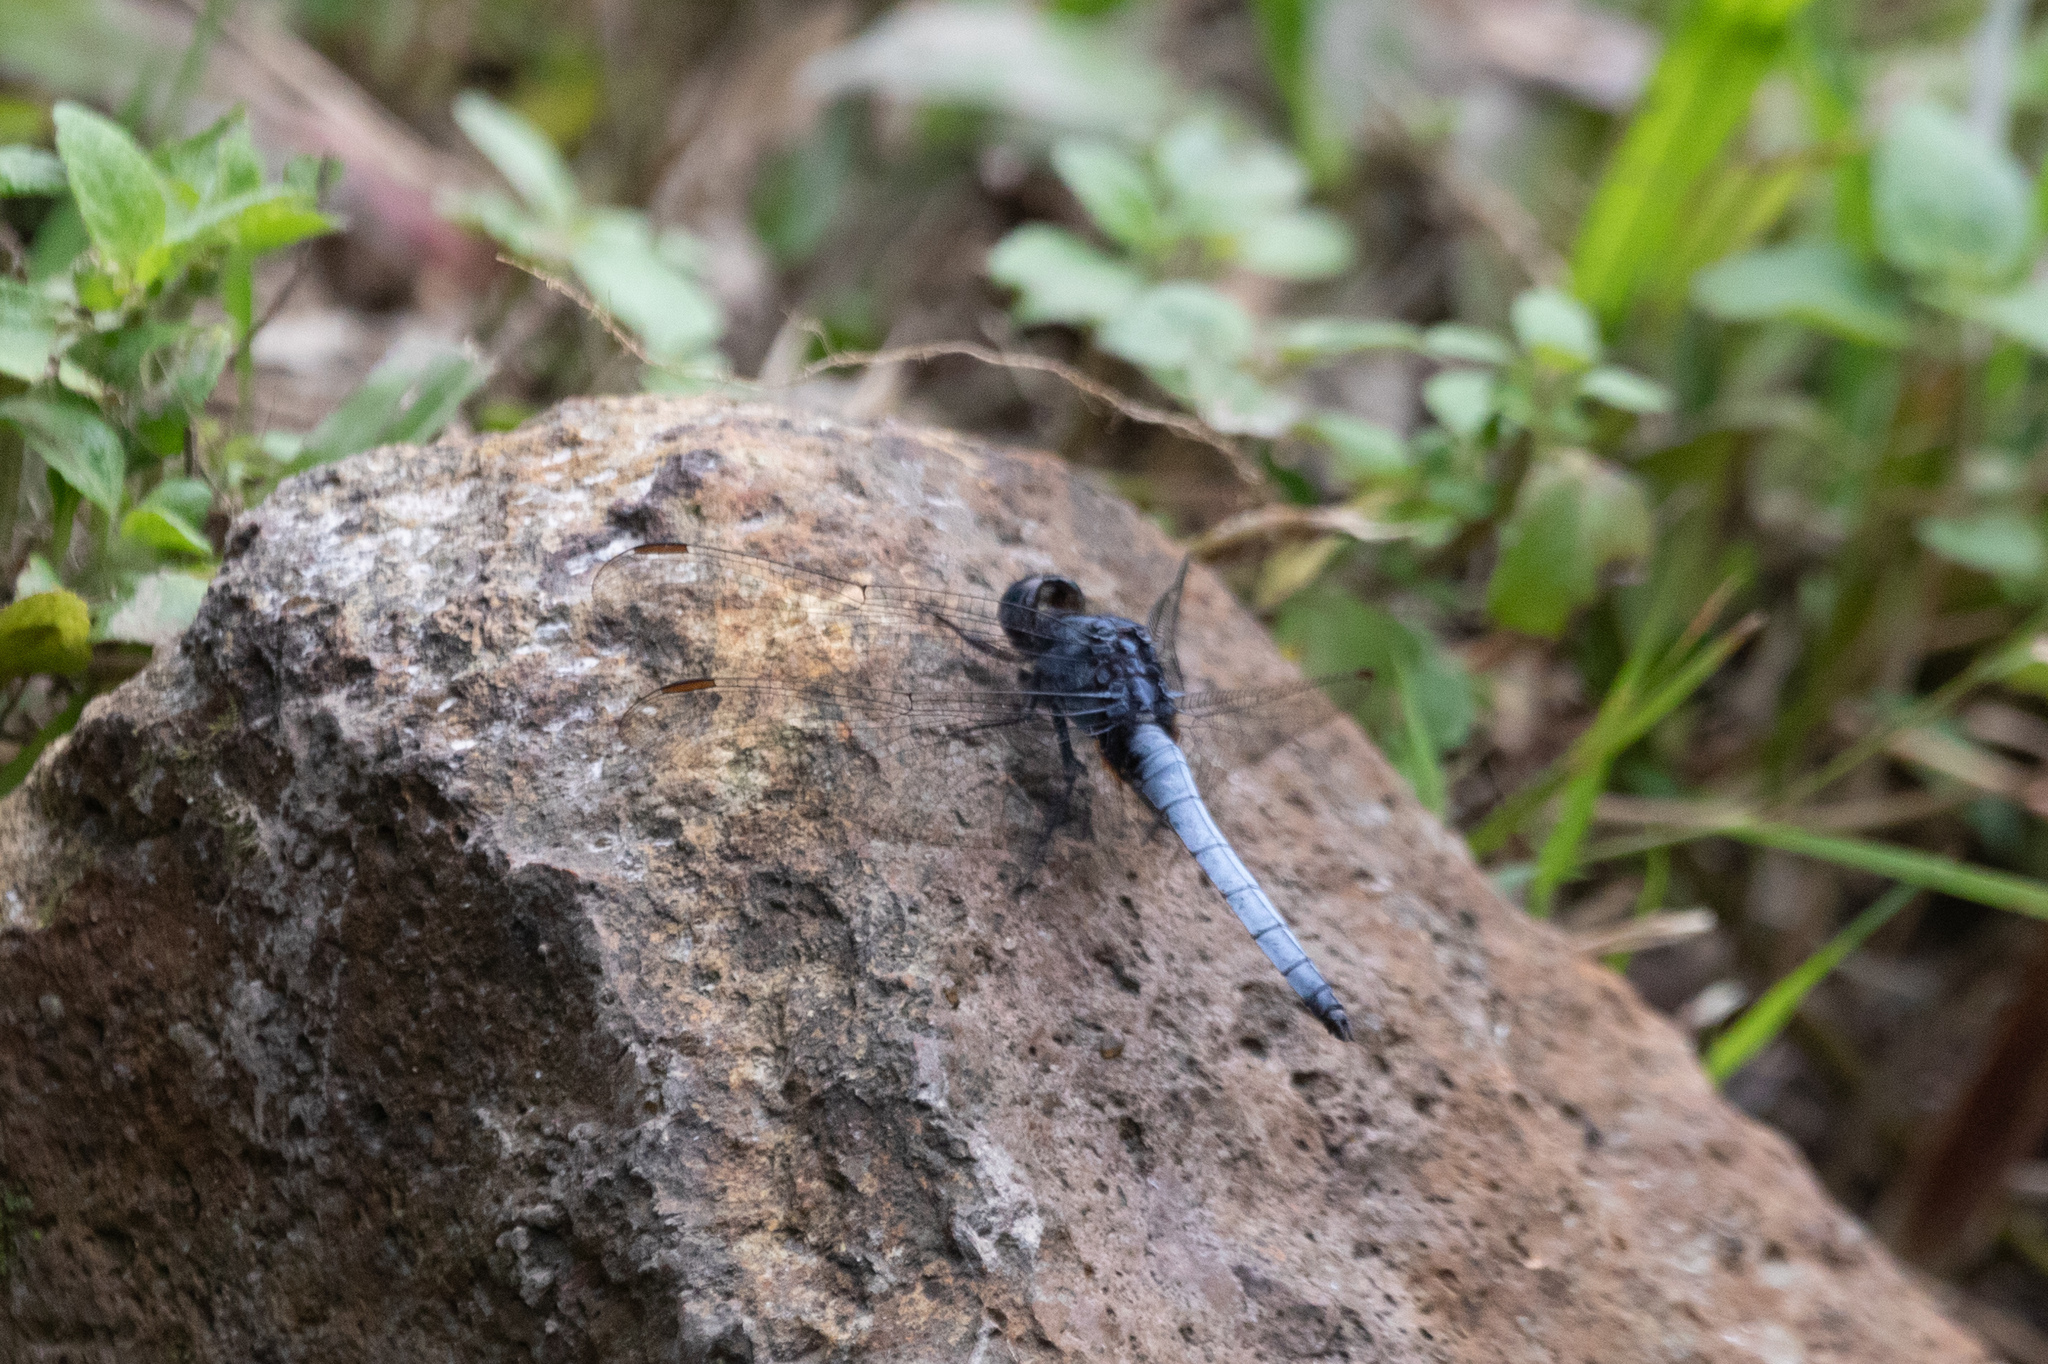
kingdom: Animalia
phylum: Arthropoda
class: Insecta
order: Odonata
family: Libellulidae
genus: Orthetrum
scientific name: Orthetrum glaucum
